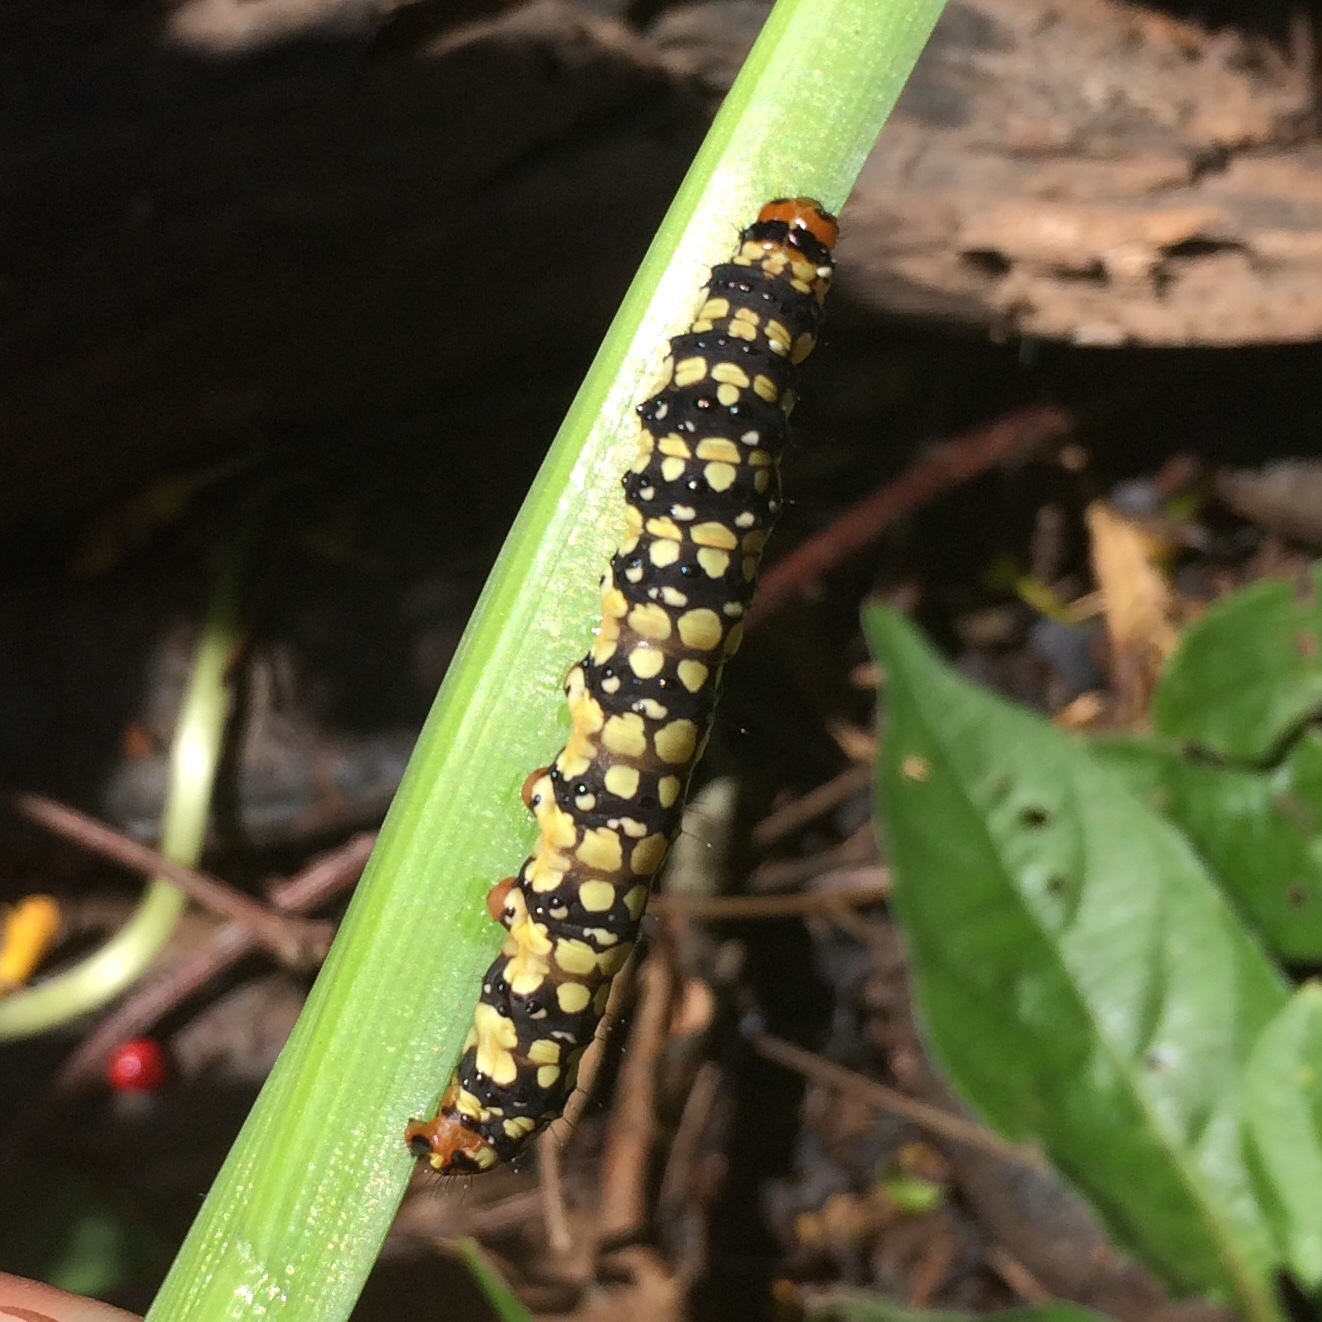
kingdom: Animalia
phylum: Arthropoda
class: Insecta
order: Lepidoptera
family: Noctuidae
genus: Brithys
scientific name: Brithys crini
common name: Kew arches
